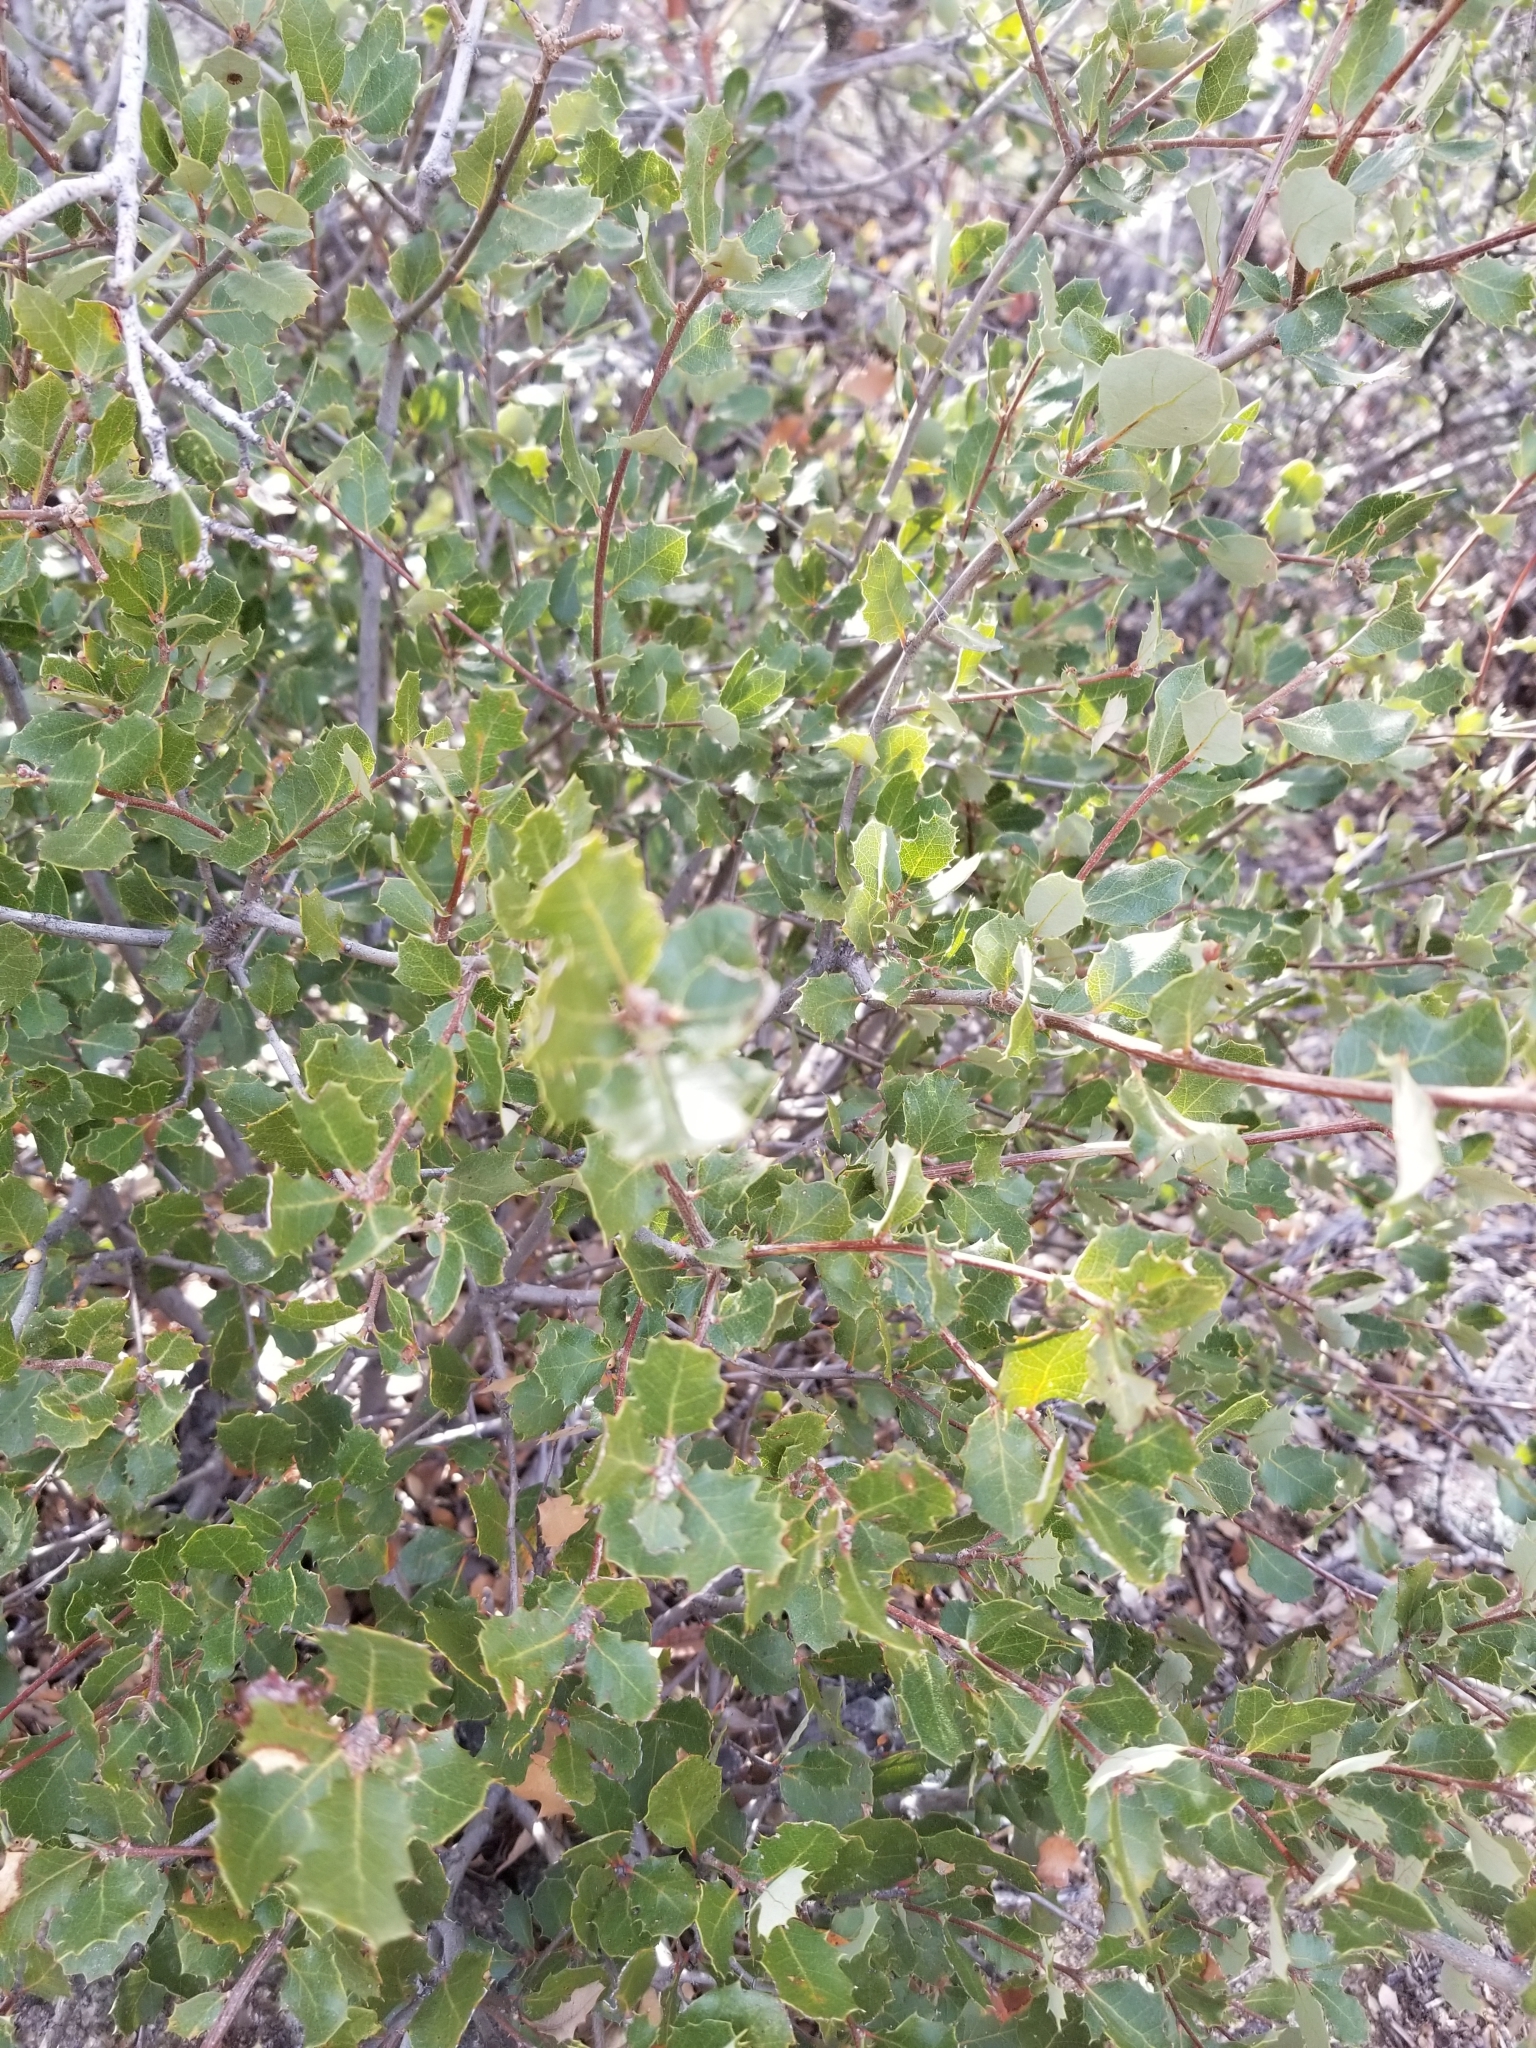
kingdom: Animalia
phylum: Arthropoda
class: Insecta
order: Hymenoptera
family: Cynipidae
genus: Andricus
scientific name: Andricus quercuscalifornicus
